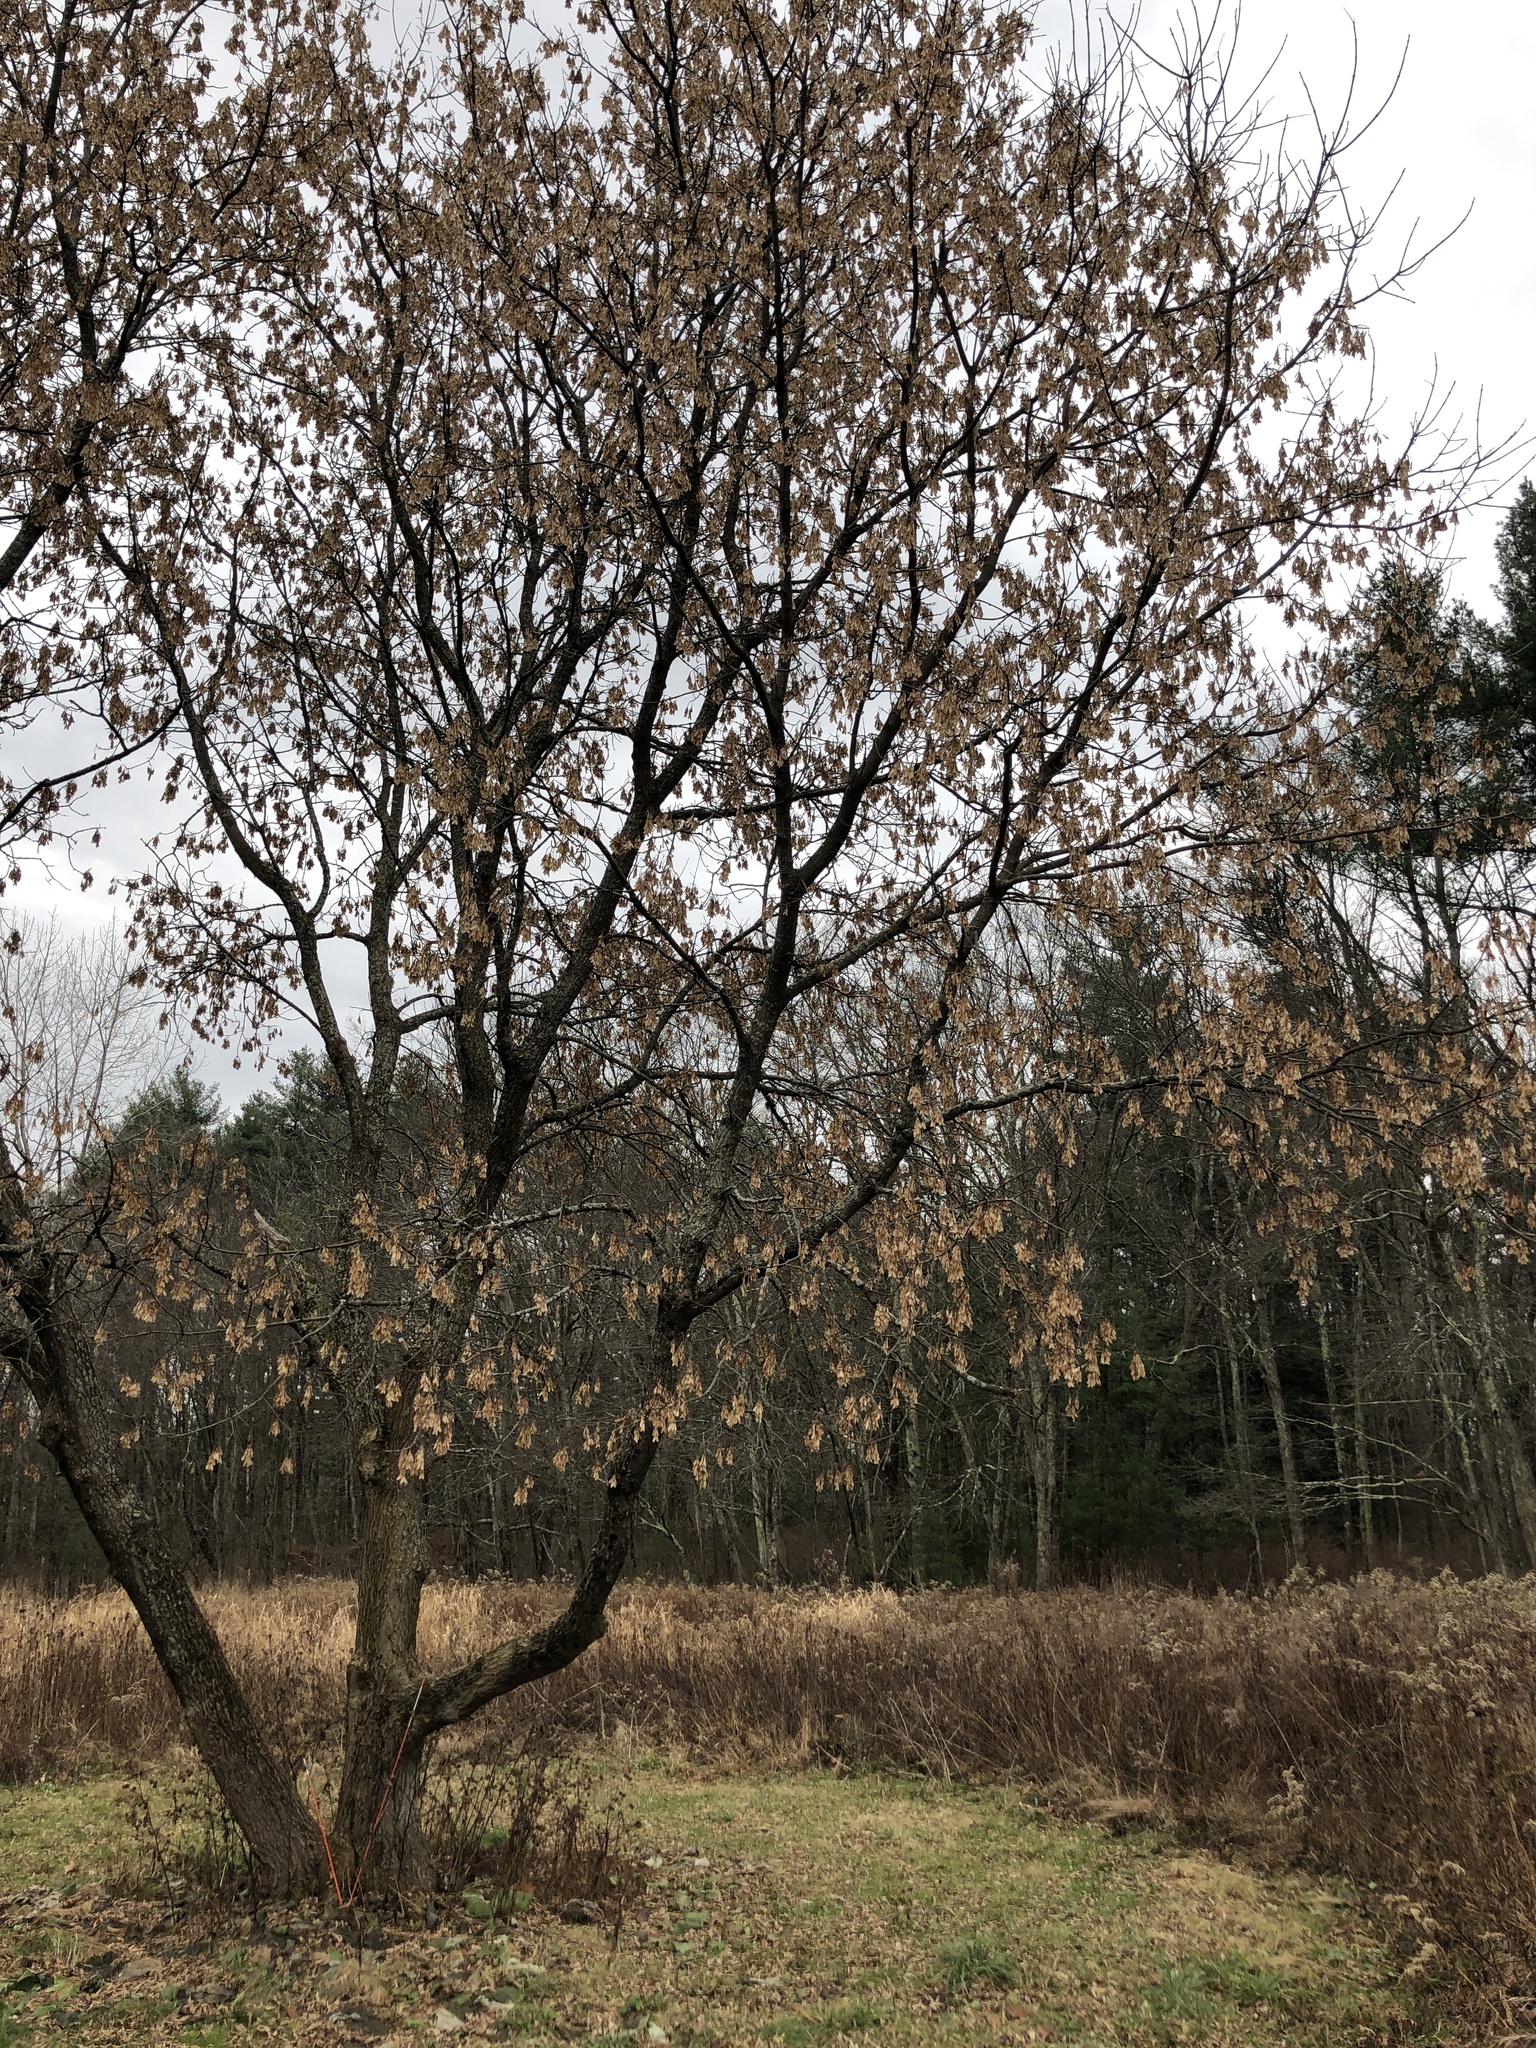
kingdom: Plantae
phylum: Tracheophyta
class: Magnoliopsida
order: Sapindales
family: Sapindaceae
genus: Acer
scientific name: Acer negundo
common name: Ashleaf maple
